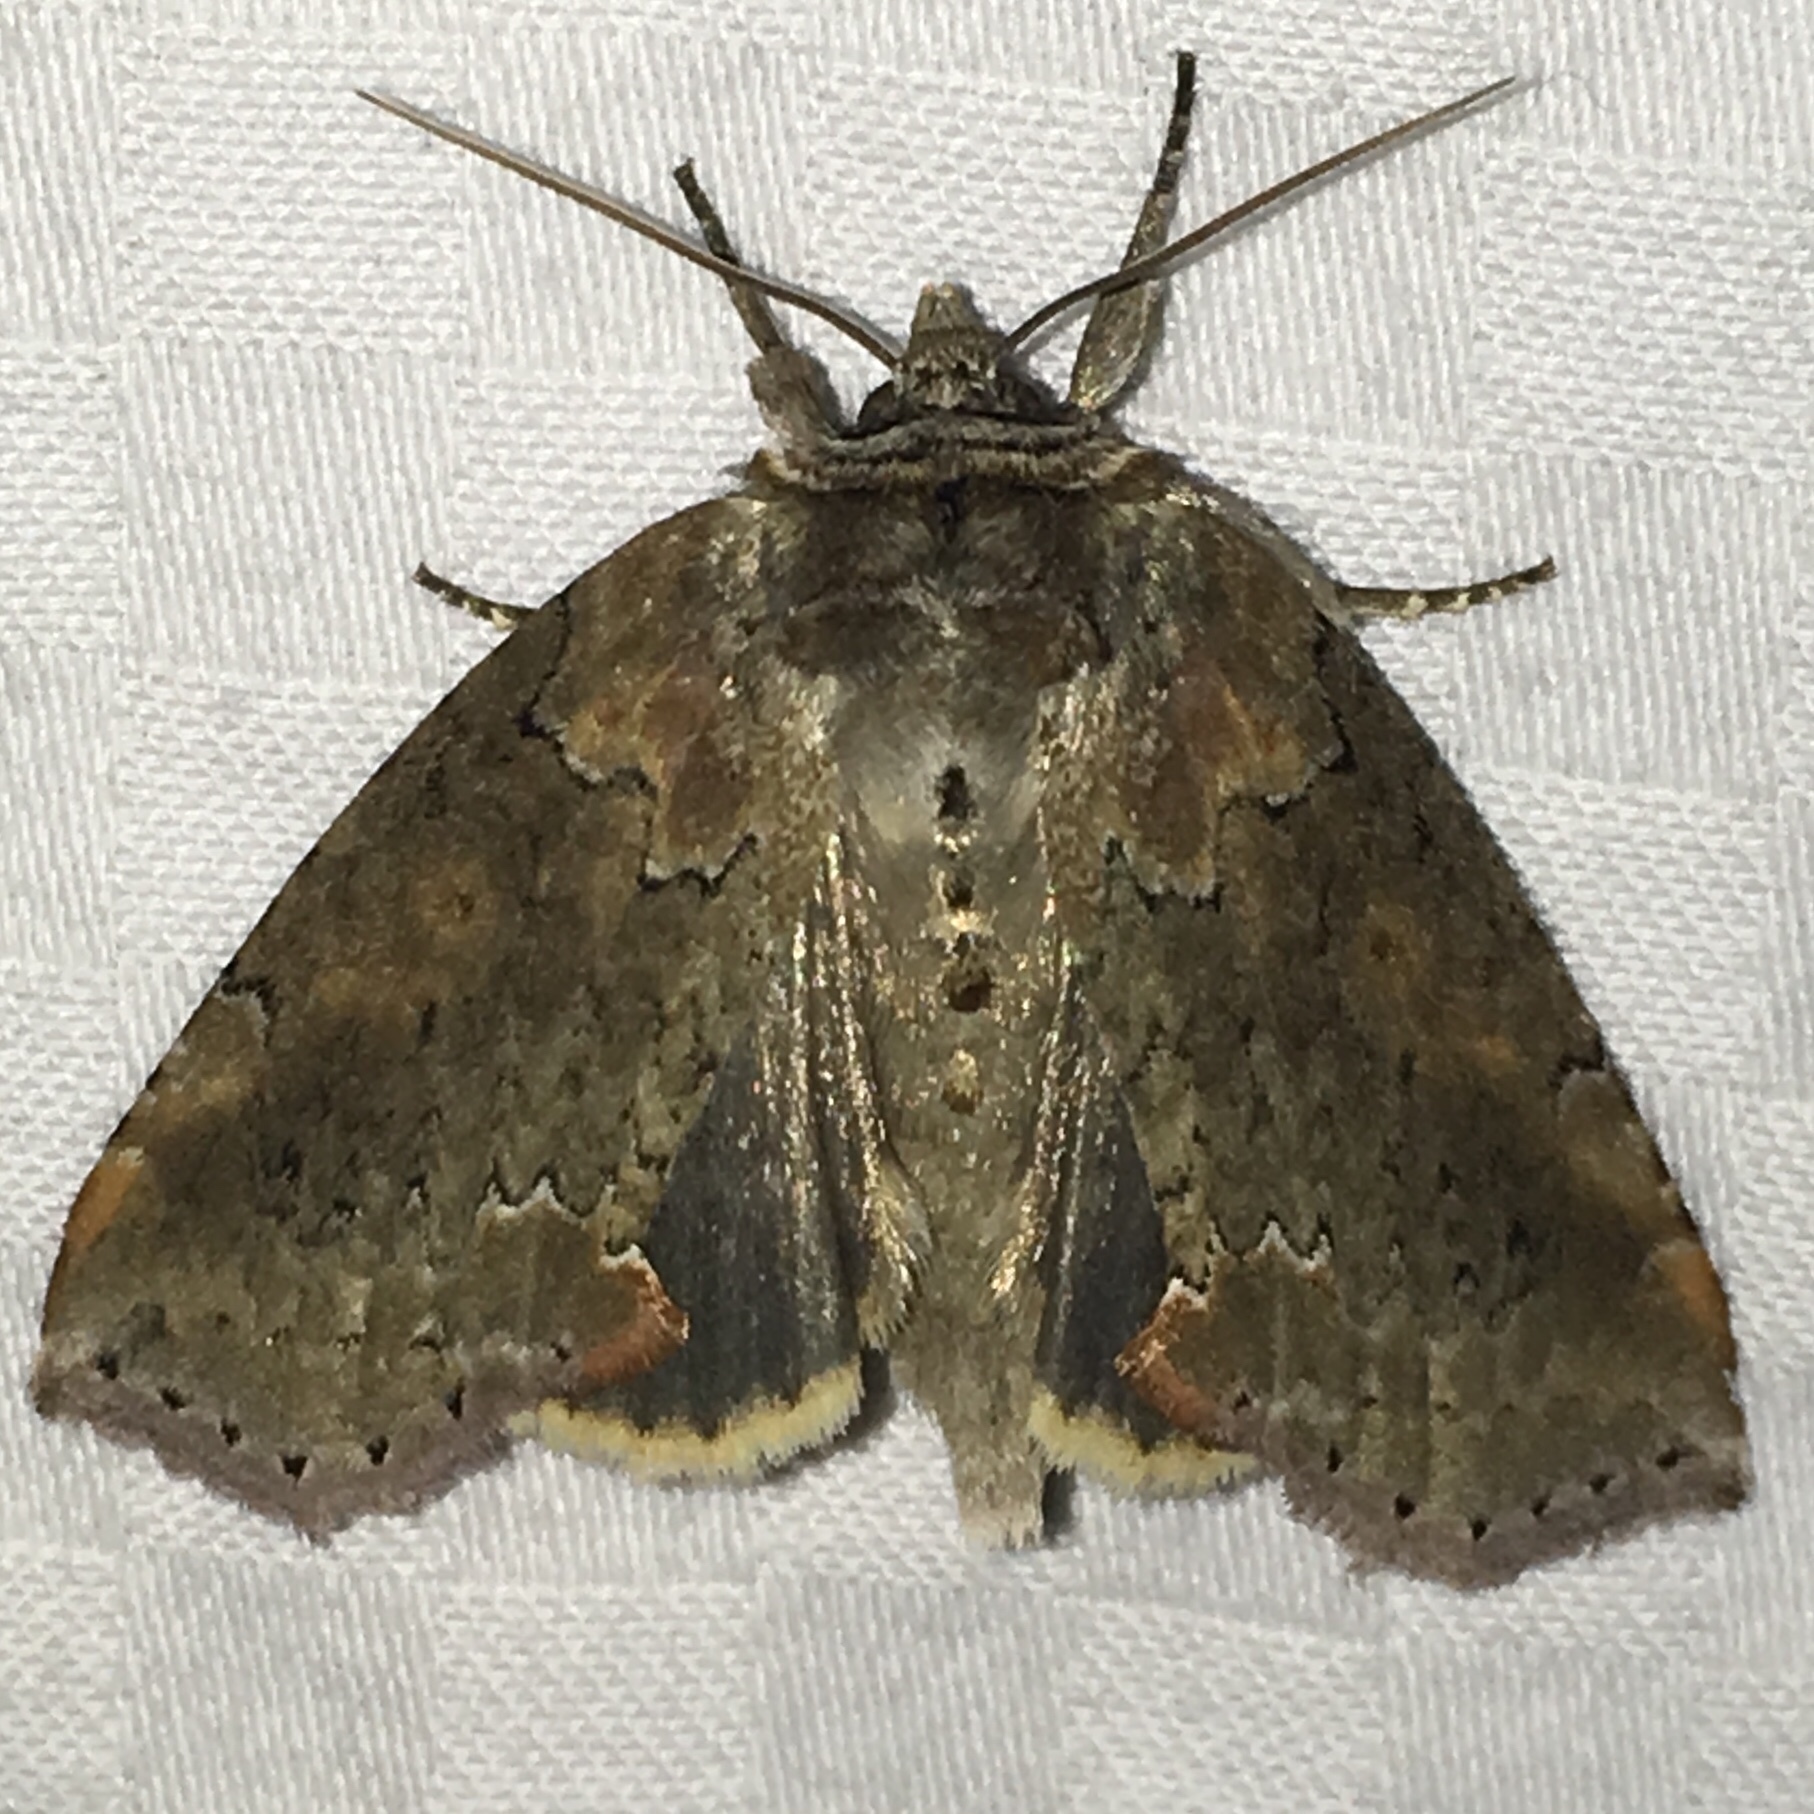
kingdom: Animalia
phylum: Arthropoda
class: Insecta
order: Lepidoptera
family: Drepanidae
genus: Pseudothyatira
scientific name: Pseudothyatira cymatophoroides
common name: Tufted thyatirid moth
